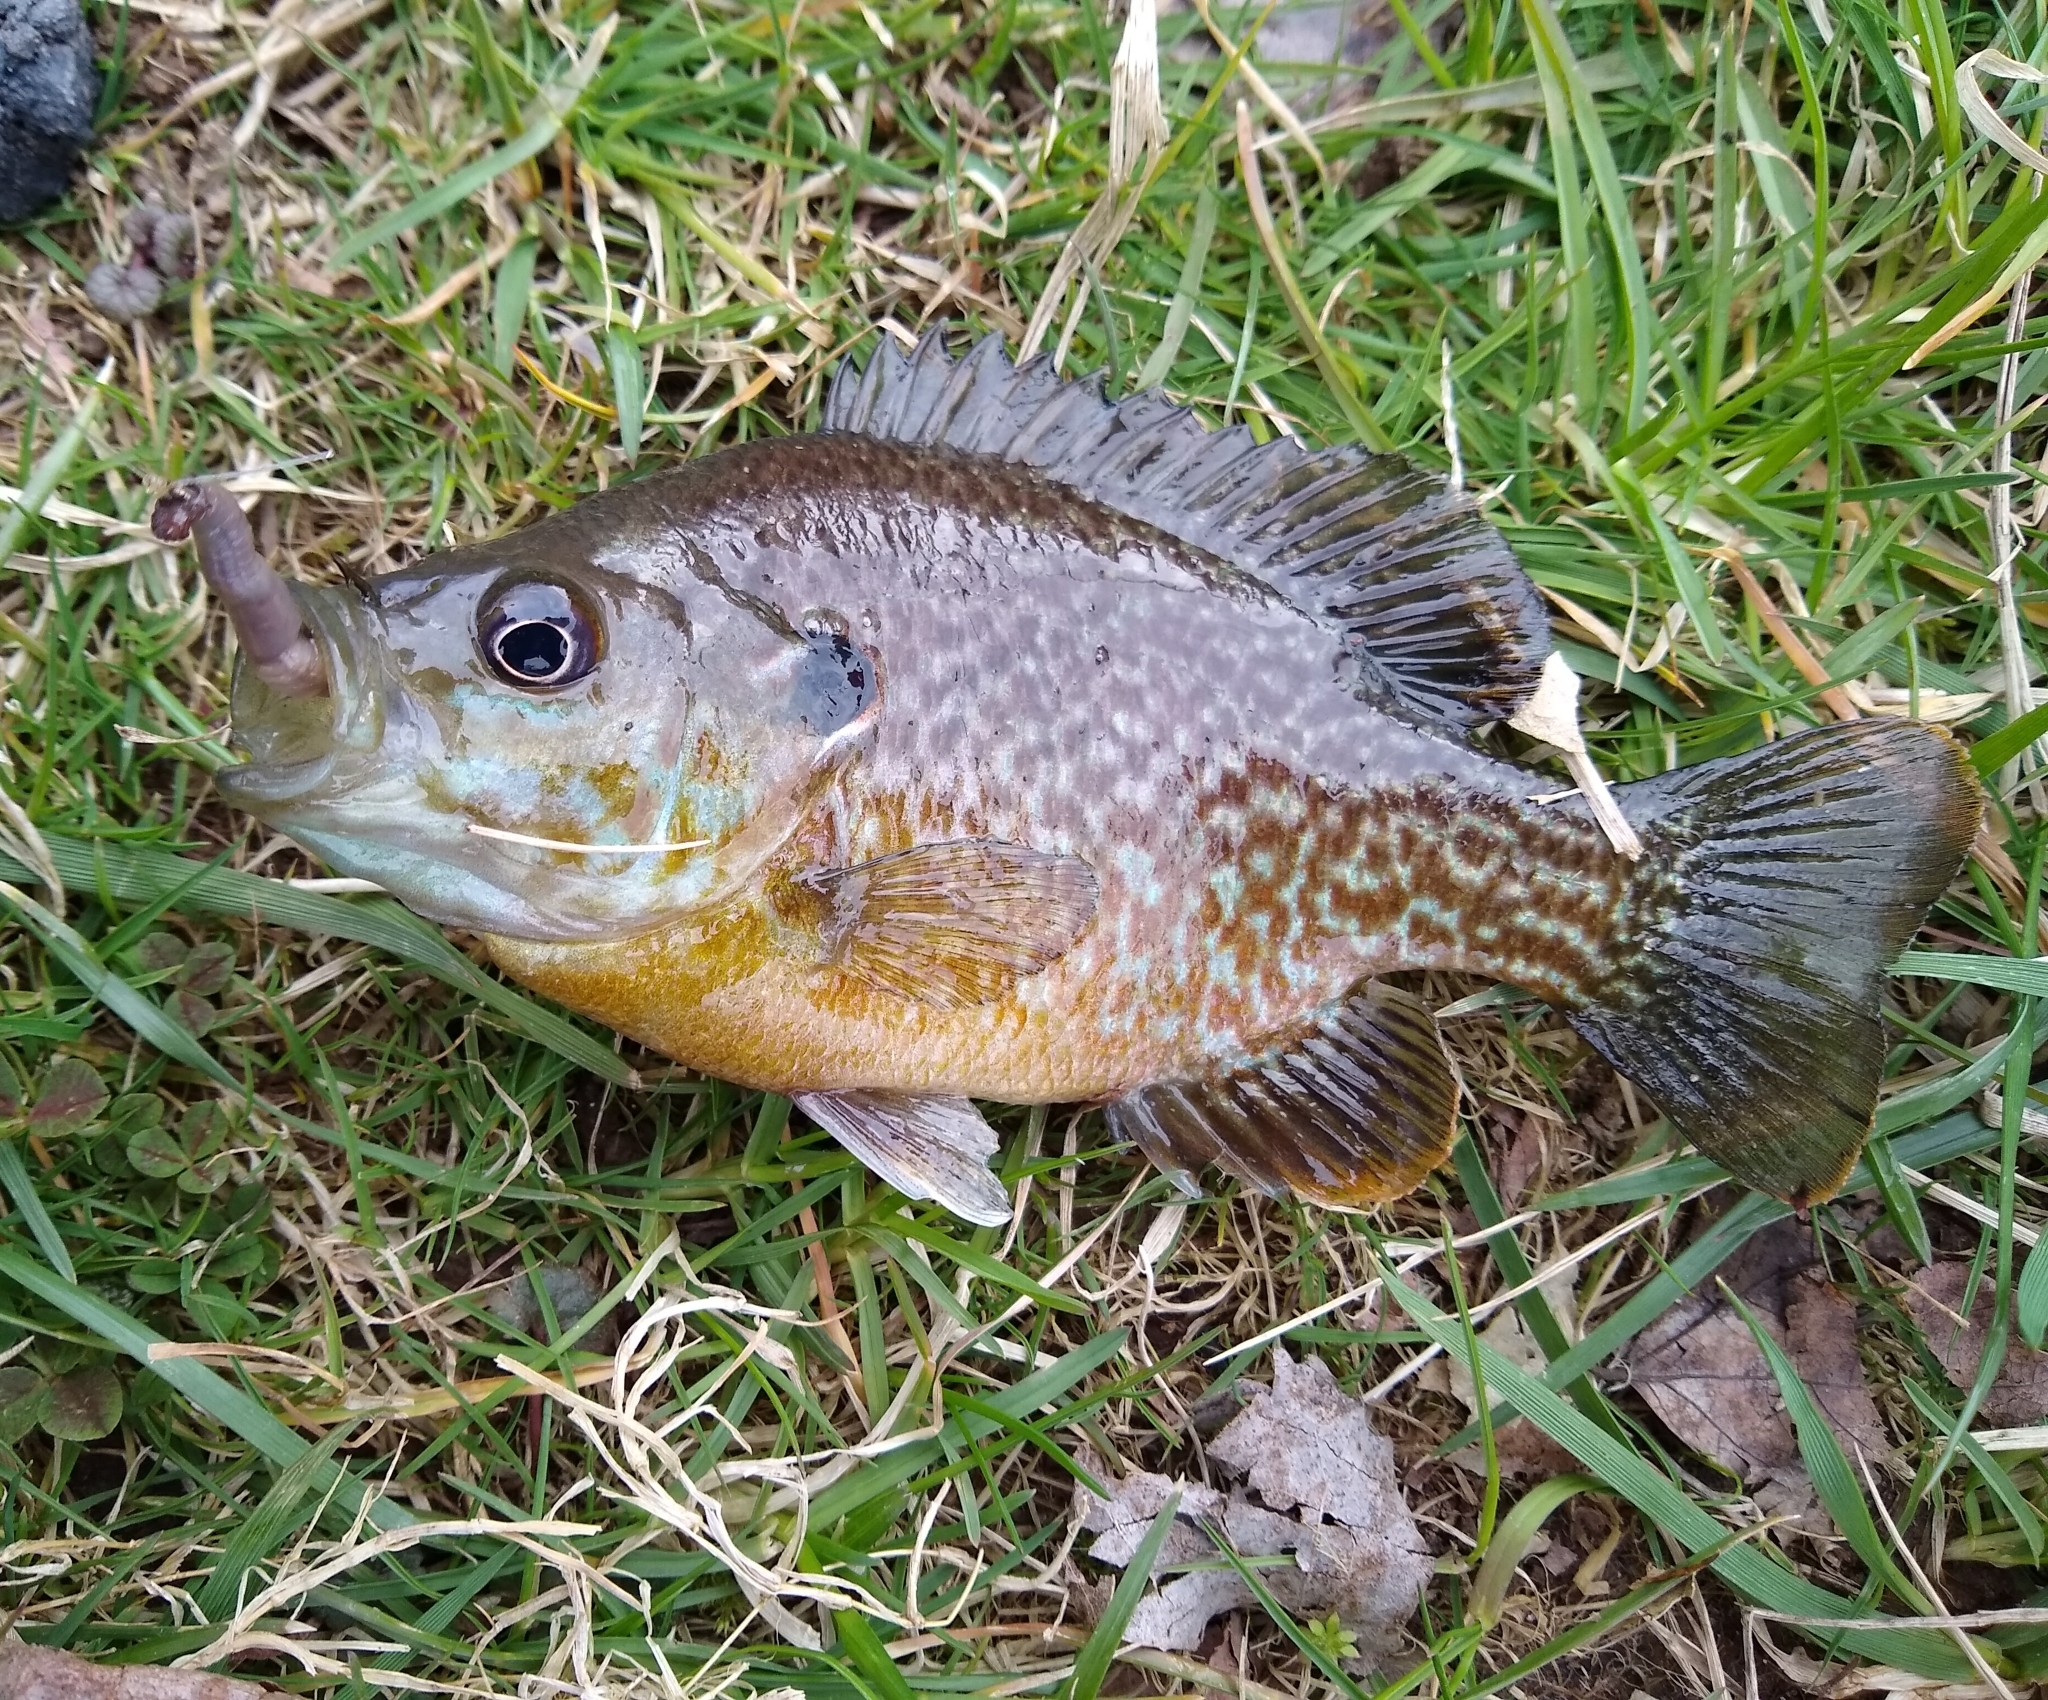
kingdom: Animalia
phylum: Chordata
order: Perciformes
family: Centrarchidae
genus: Lepomis
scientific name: Lepomis
